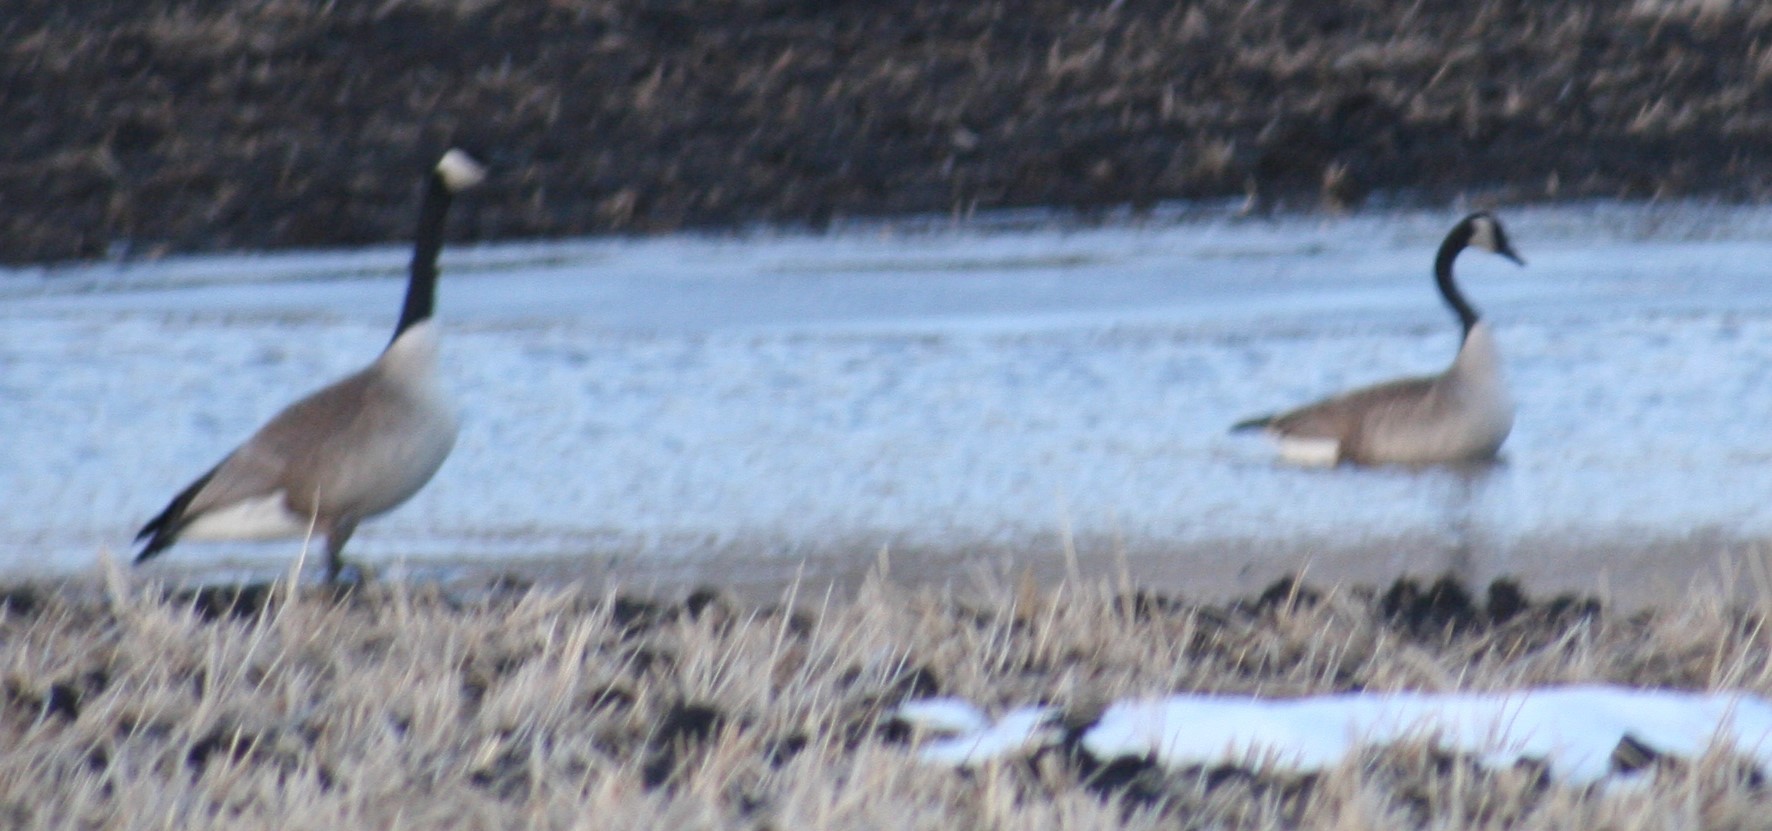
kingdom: Animalia
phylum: Chordata
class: Aves
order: Anseriformes
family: Anatidae
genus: Branta
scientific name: Branta canadensis
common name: Canada goose
